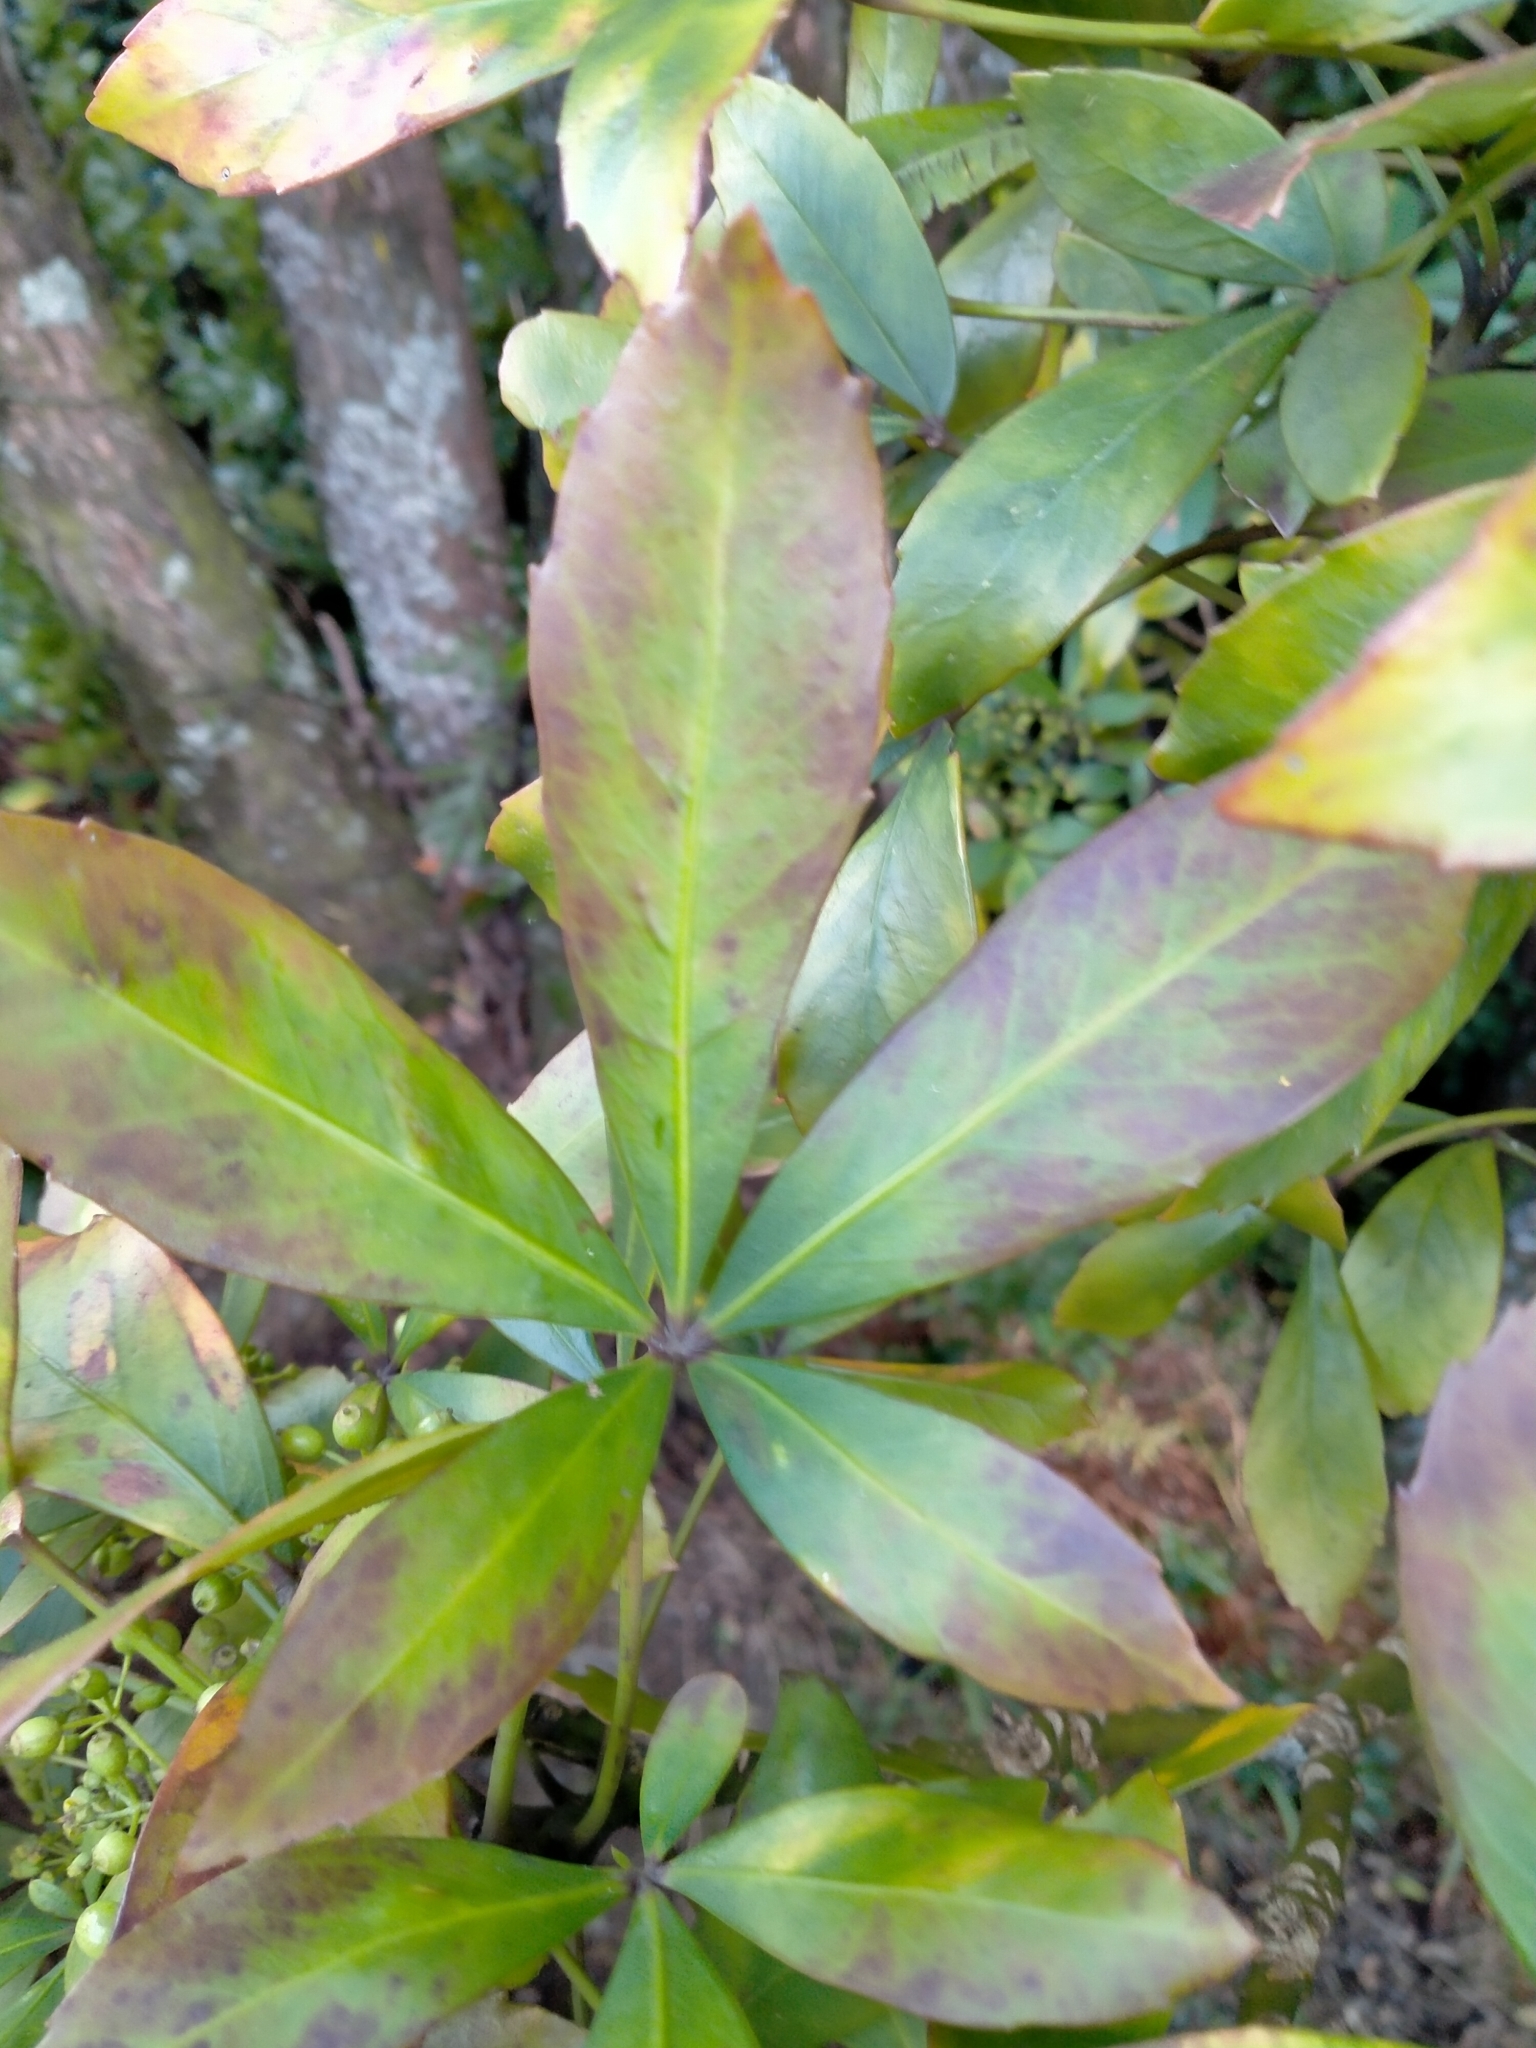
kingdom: Plantae
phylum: Tracheophyta
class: Magnoliopsida
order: Apiales
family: Araliaceae
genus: Pseudopanax
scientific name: Pseudopanax
